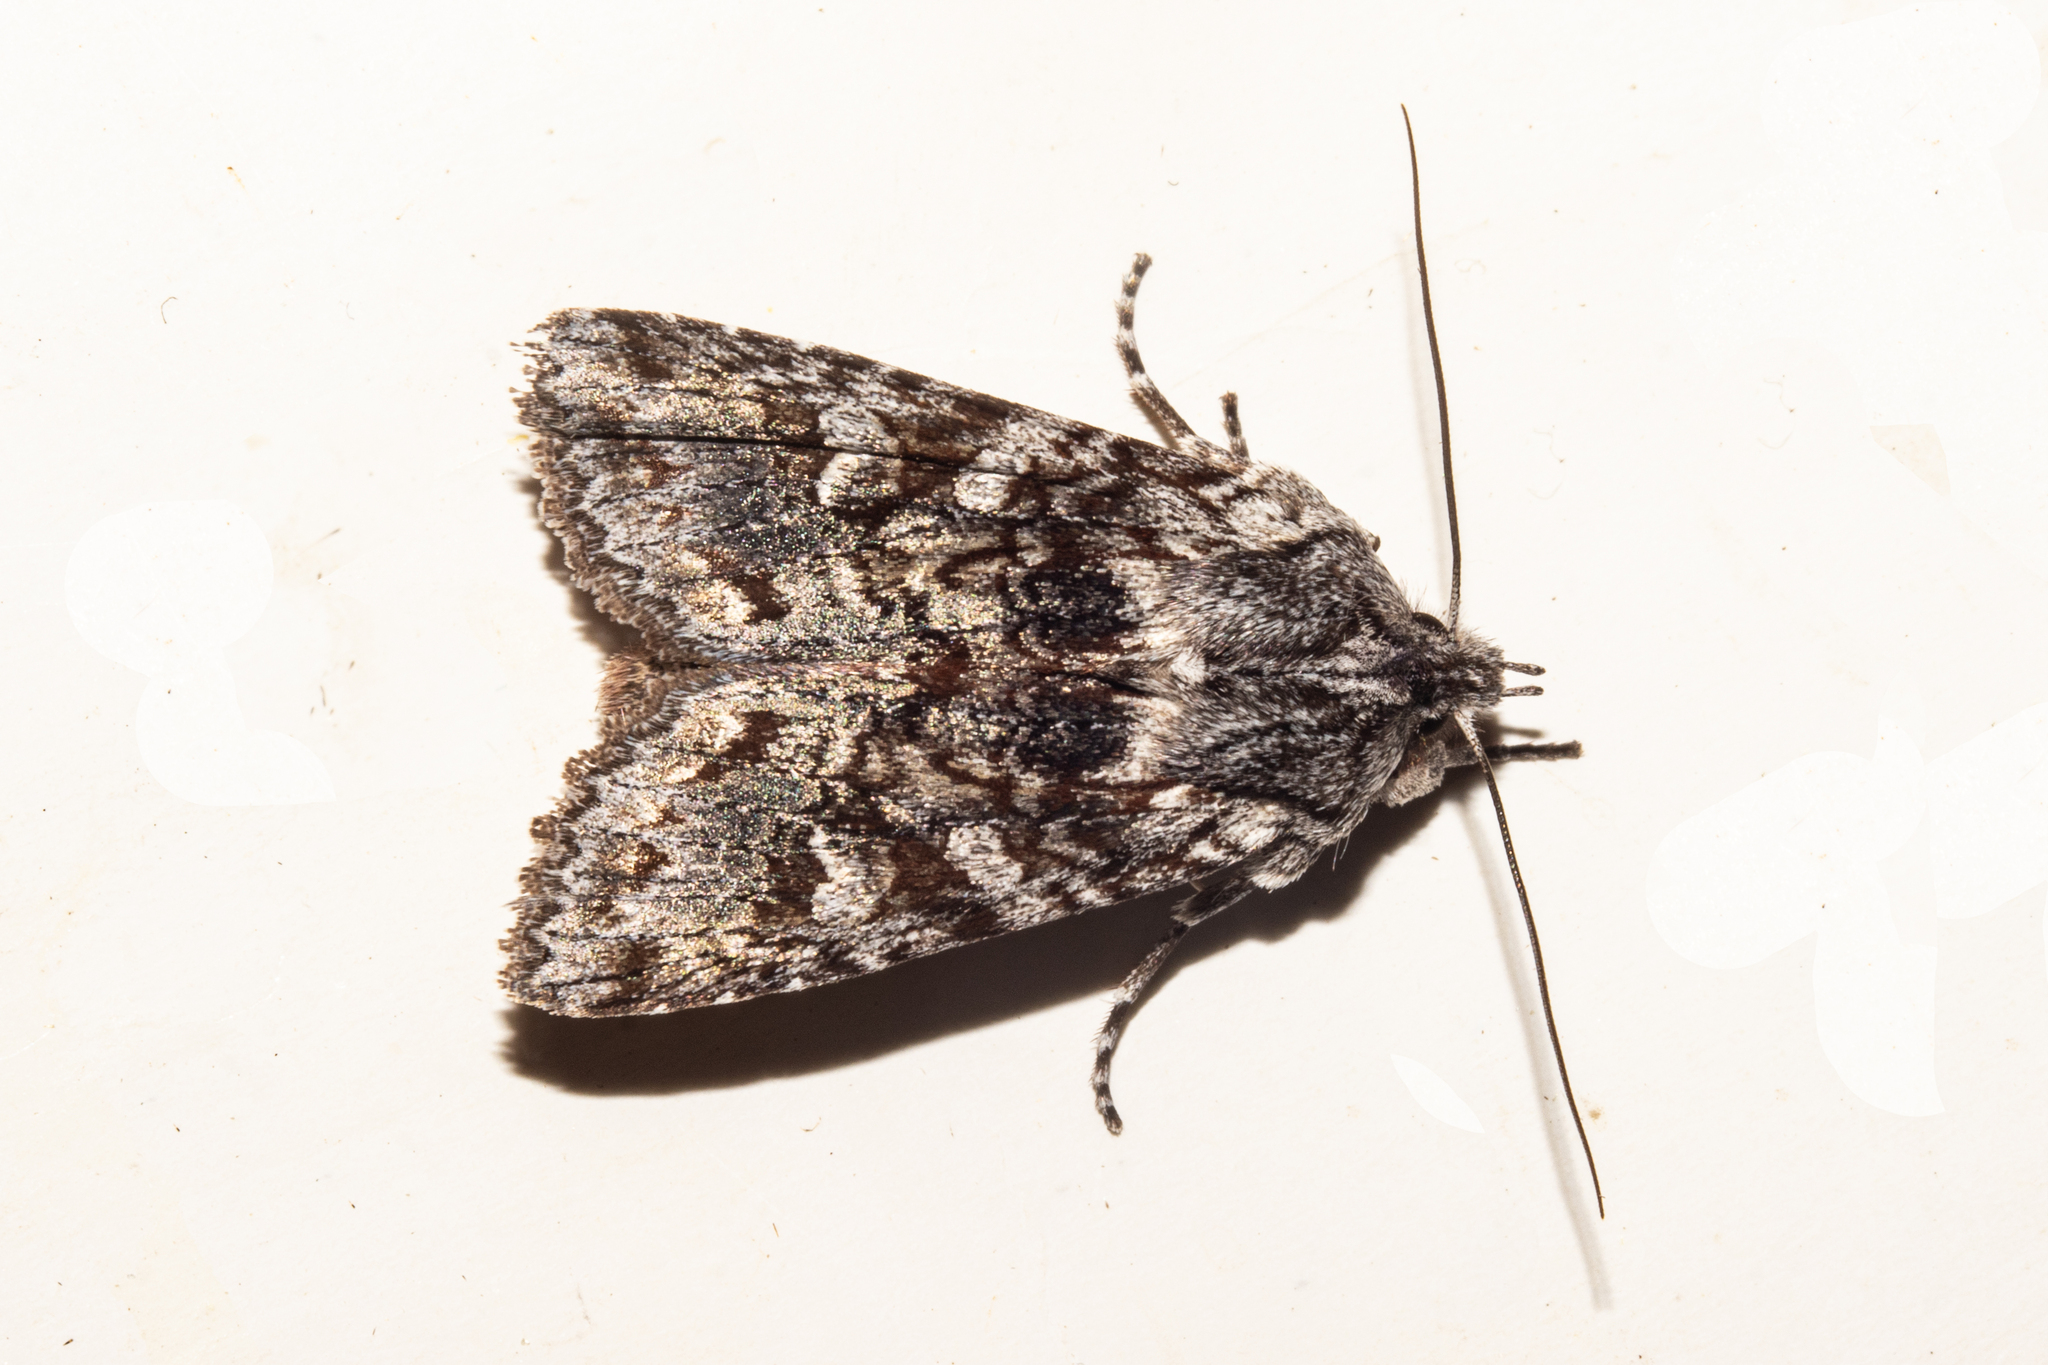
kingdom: Animalia
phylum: Arthropoda
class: Insecta
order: Lepidoptera
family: Noctuidae
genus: Physetica
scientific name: Physetica longstaffii
